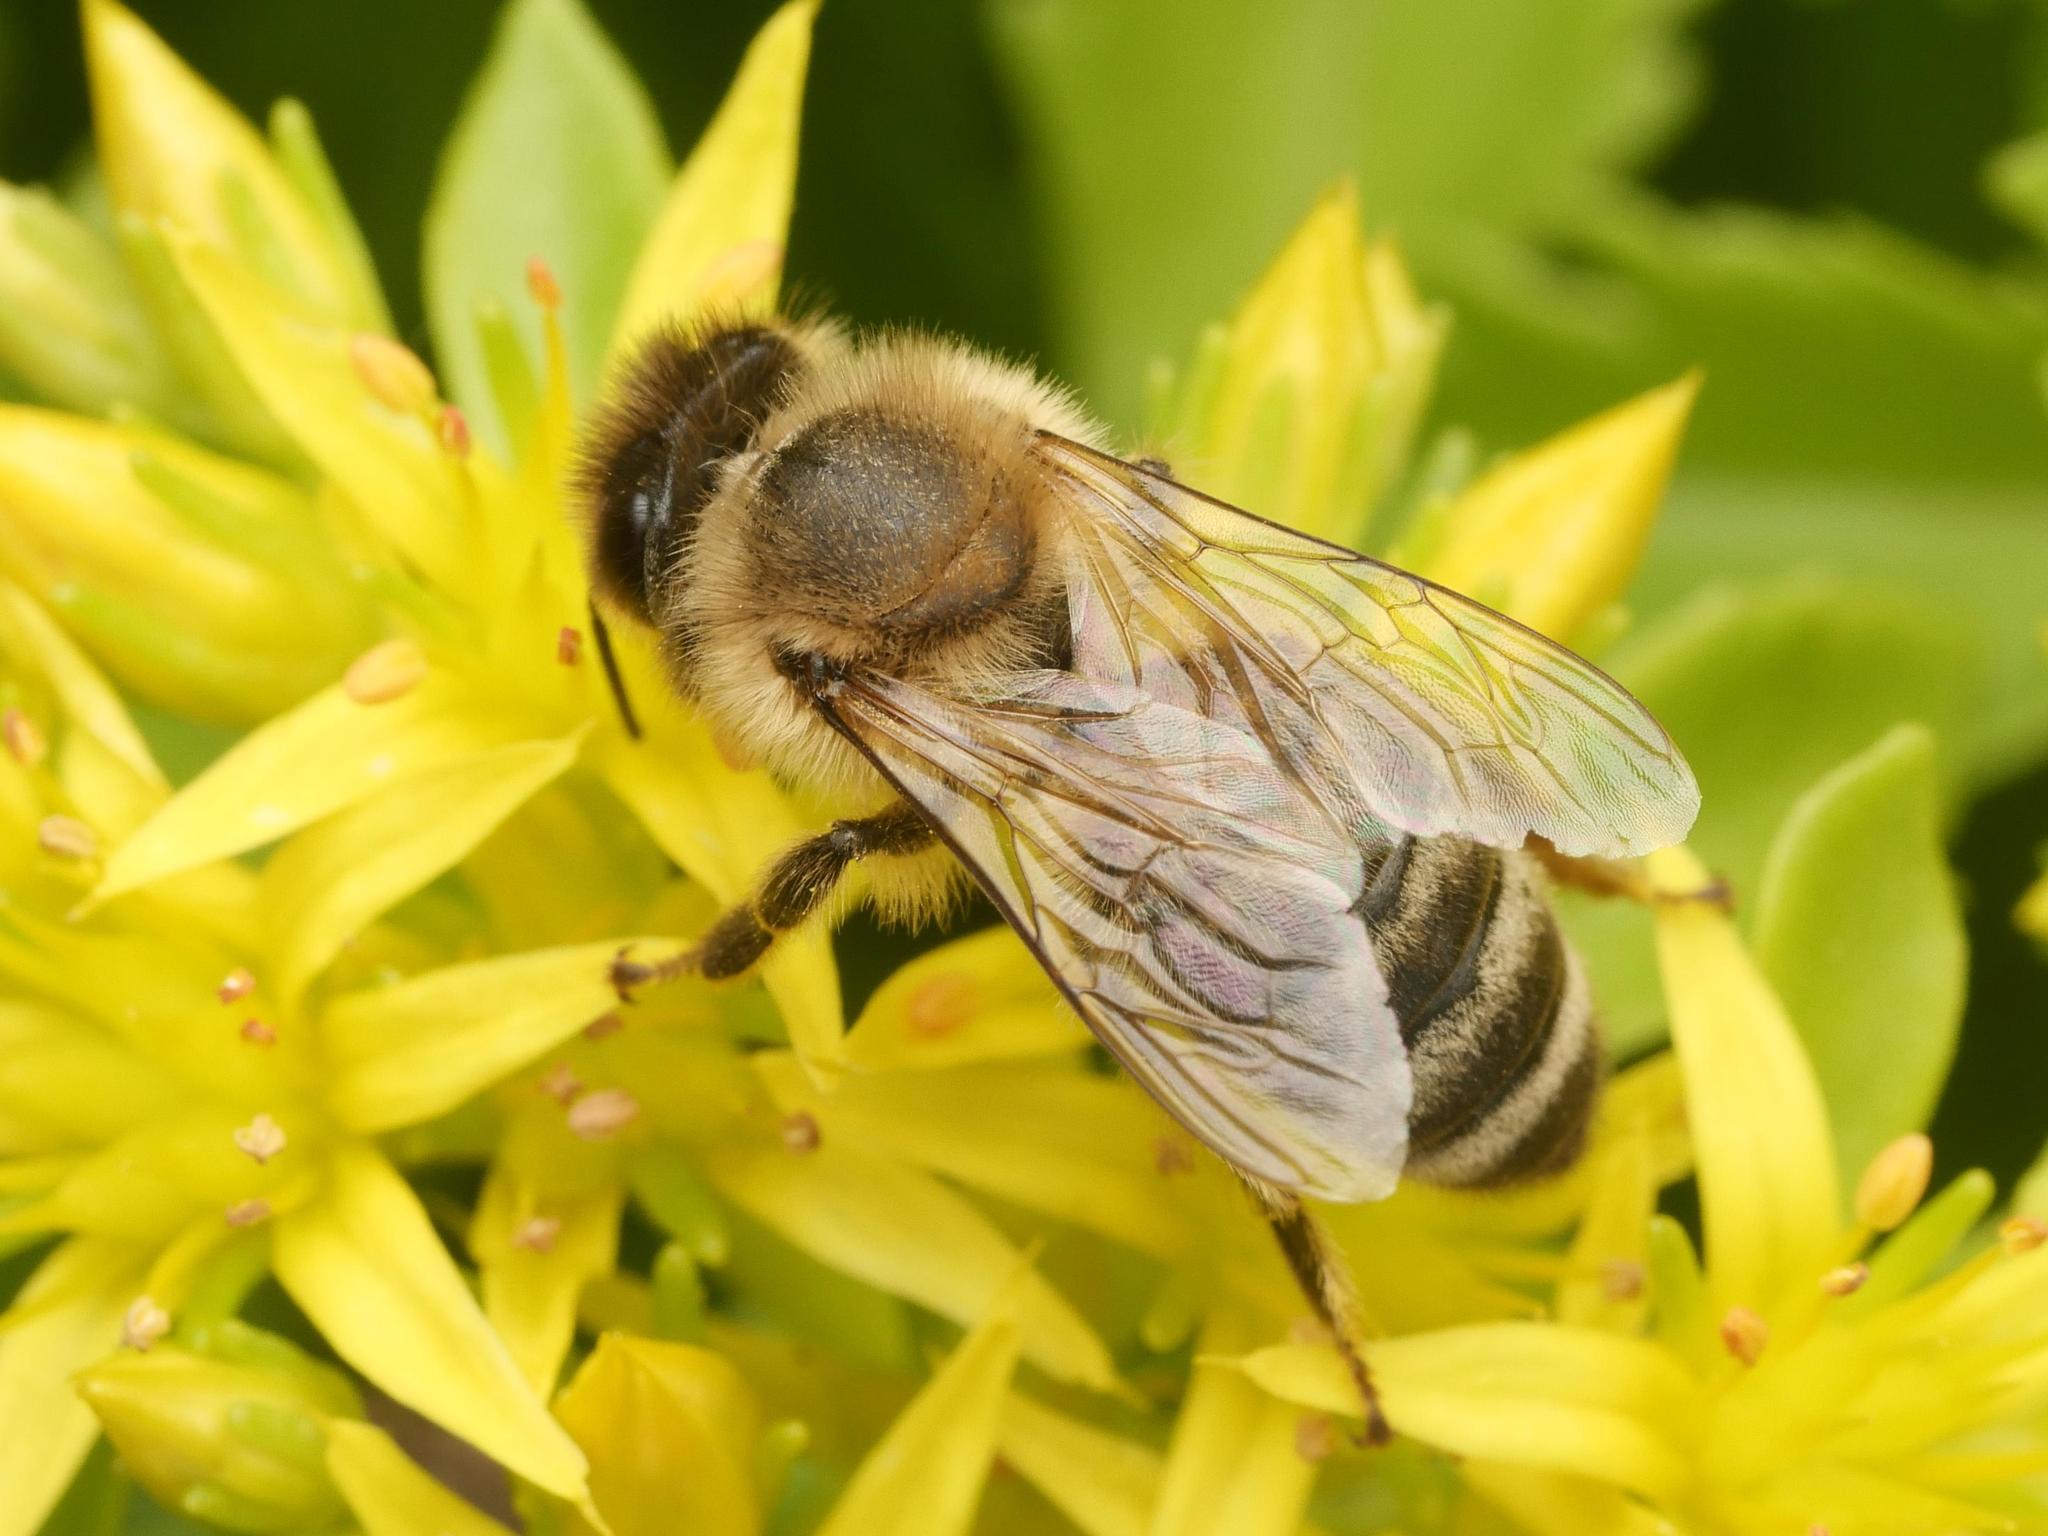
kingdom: Animalia
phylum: Arthropoda
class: Insecta
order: Hymenoptera
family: Apidae
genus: Apis
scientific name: Apis mellifera
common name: Honey bee
